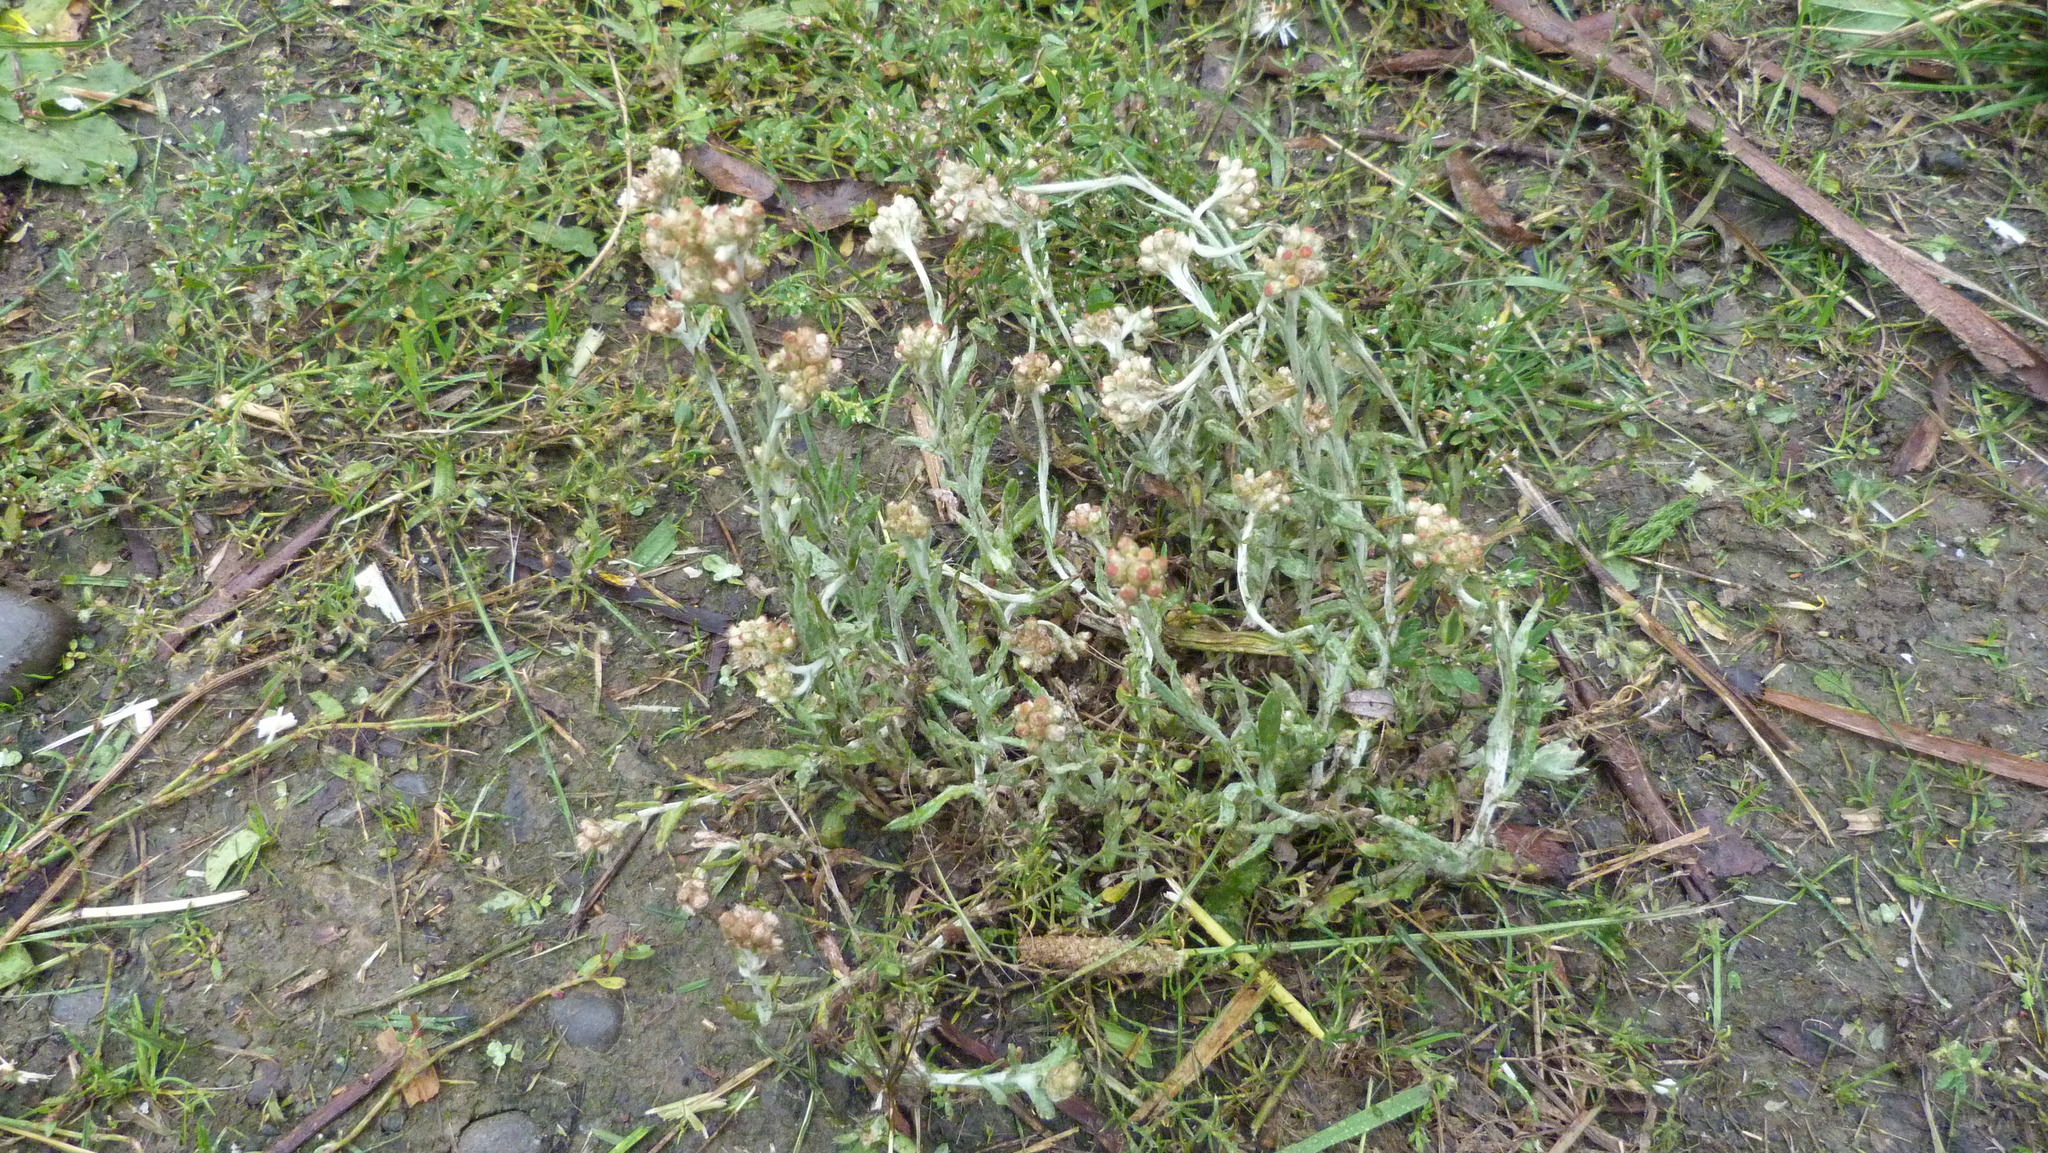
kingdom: Plantae
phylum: Tracheophyta
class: Magnoliopsida
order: Asterales
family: Asteraceae
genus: Helichrysum
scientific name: Helichrysum luteoalbum
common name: Daisy
